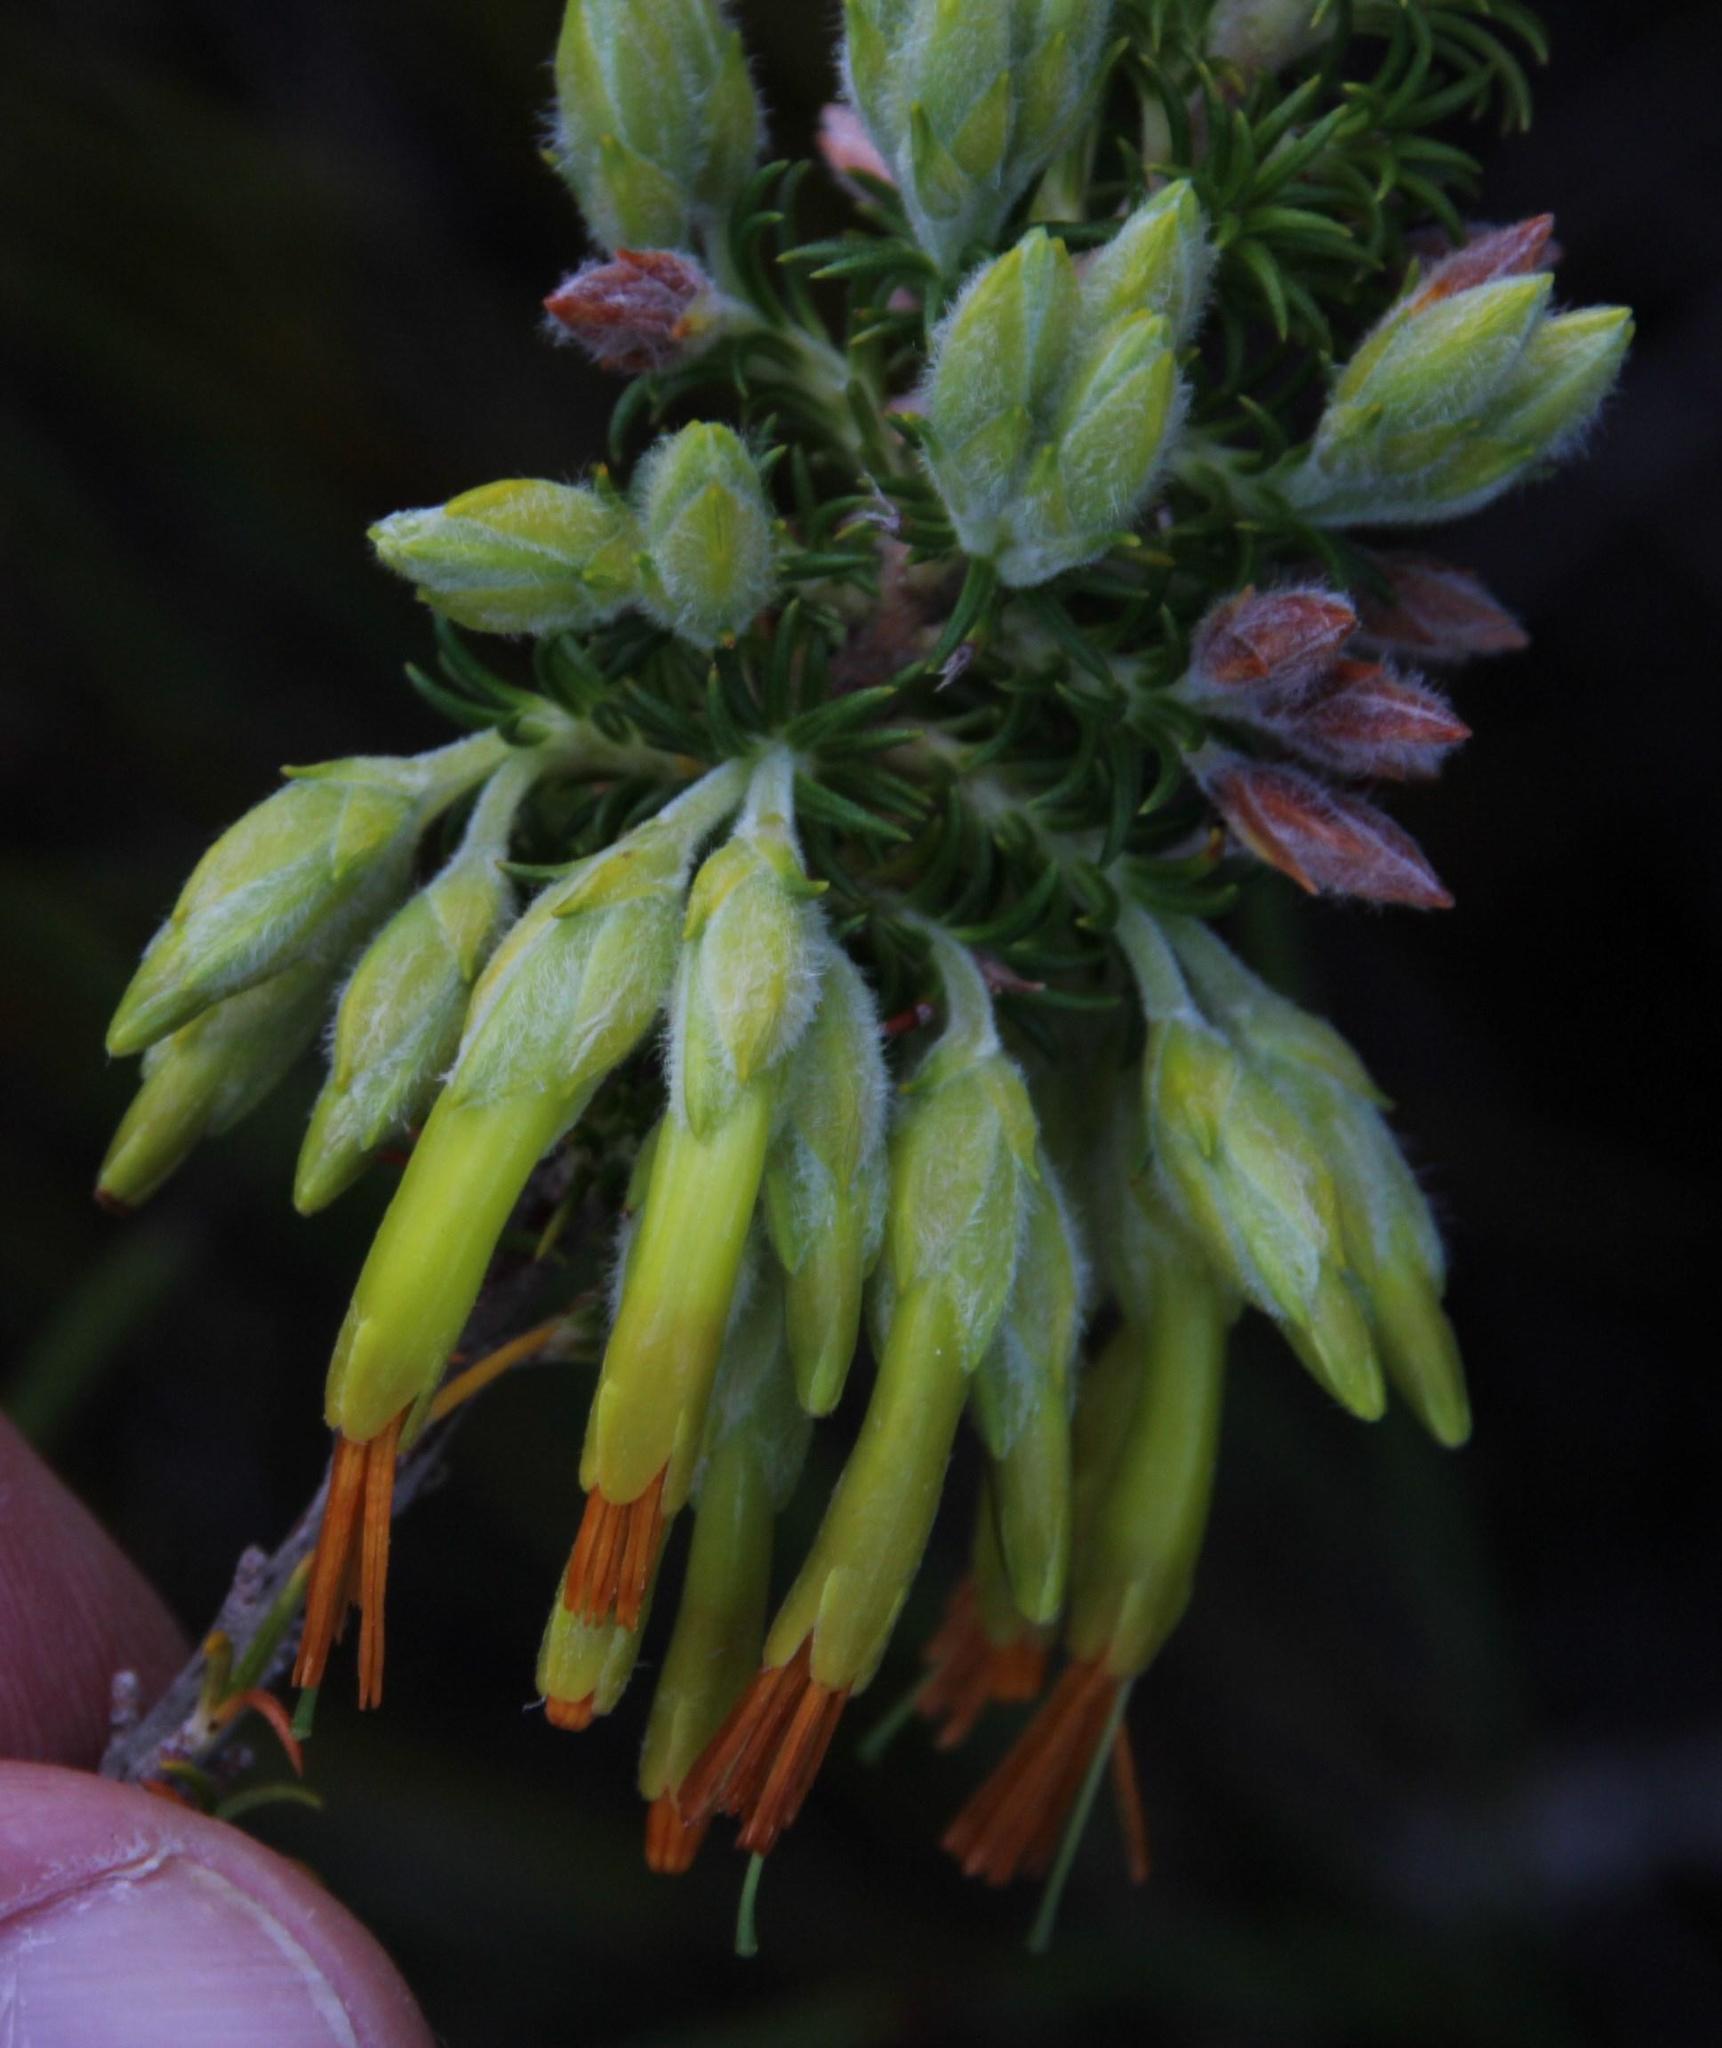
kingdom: Plantae
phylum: Tracheophyta
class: Magnoliopsida
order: Ericales
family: Ericaceae
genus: Erica
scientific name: Erica coccinea
